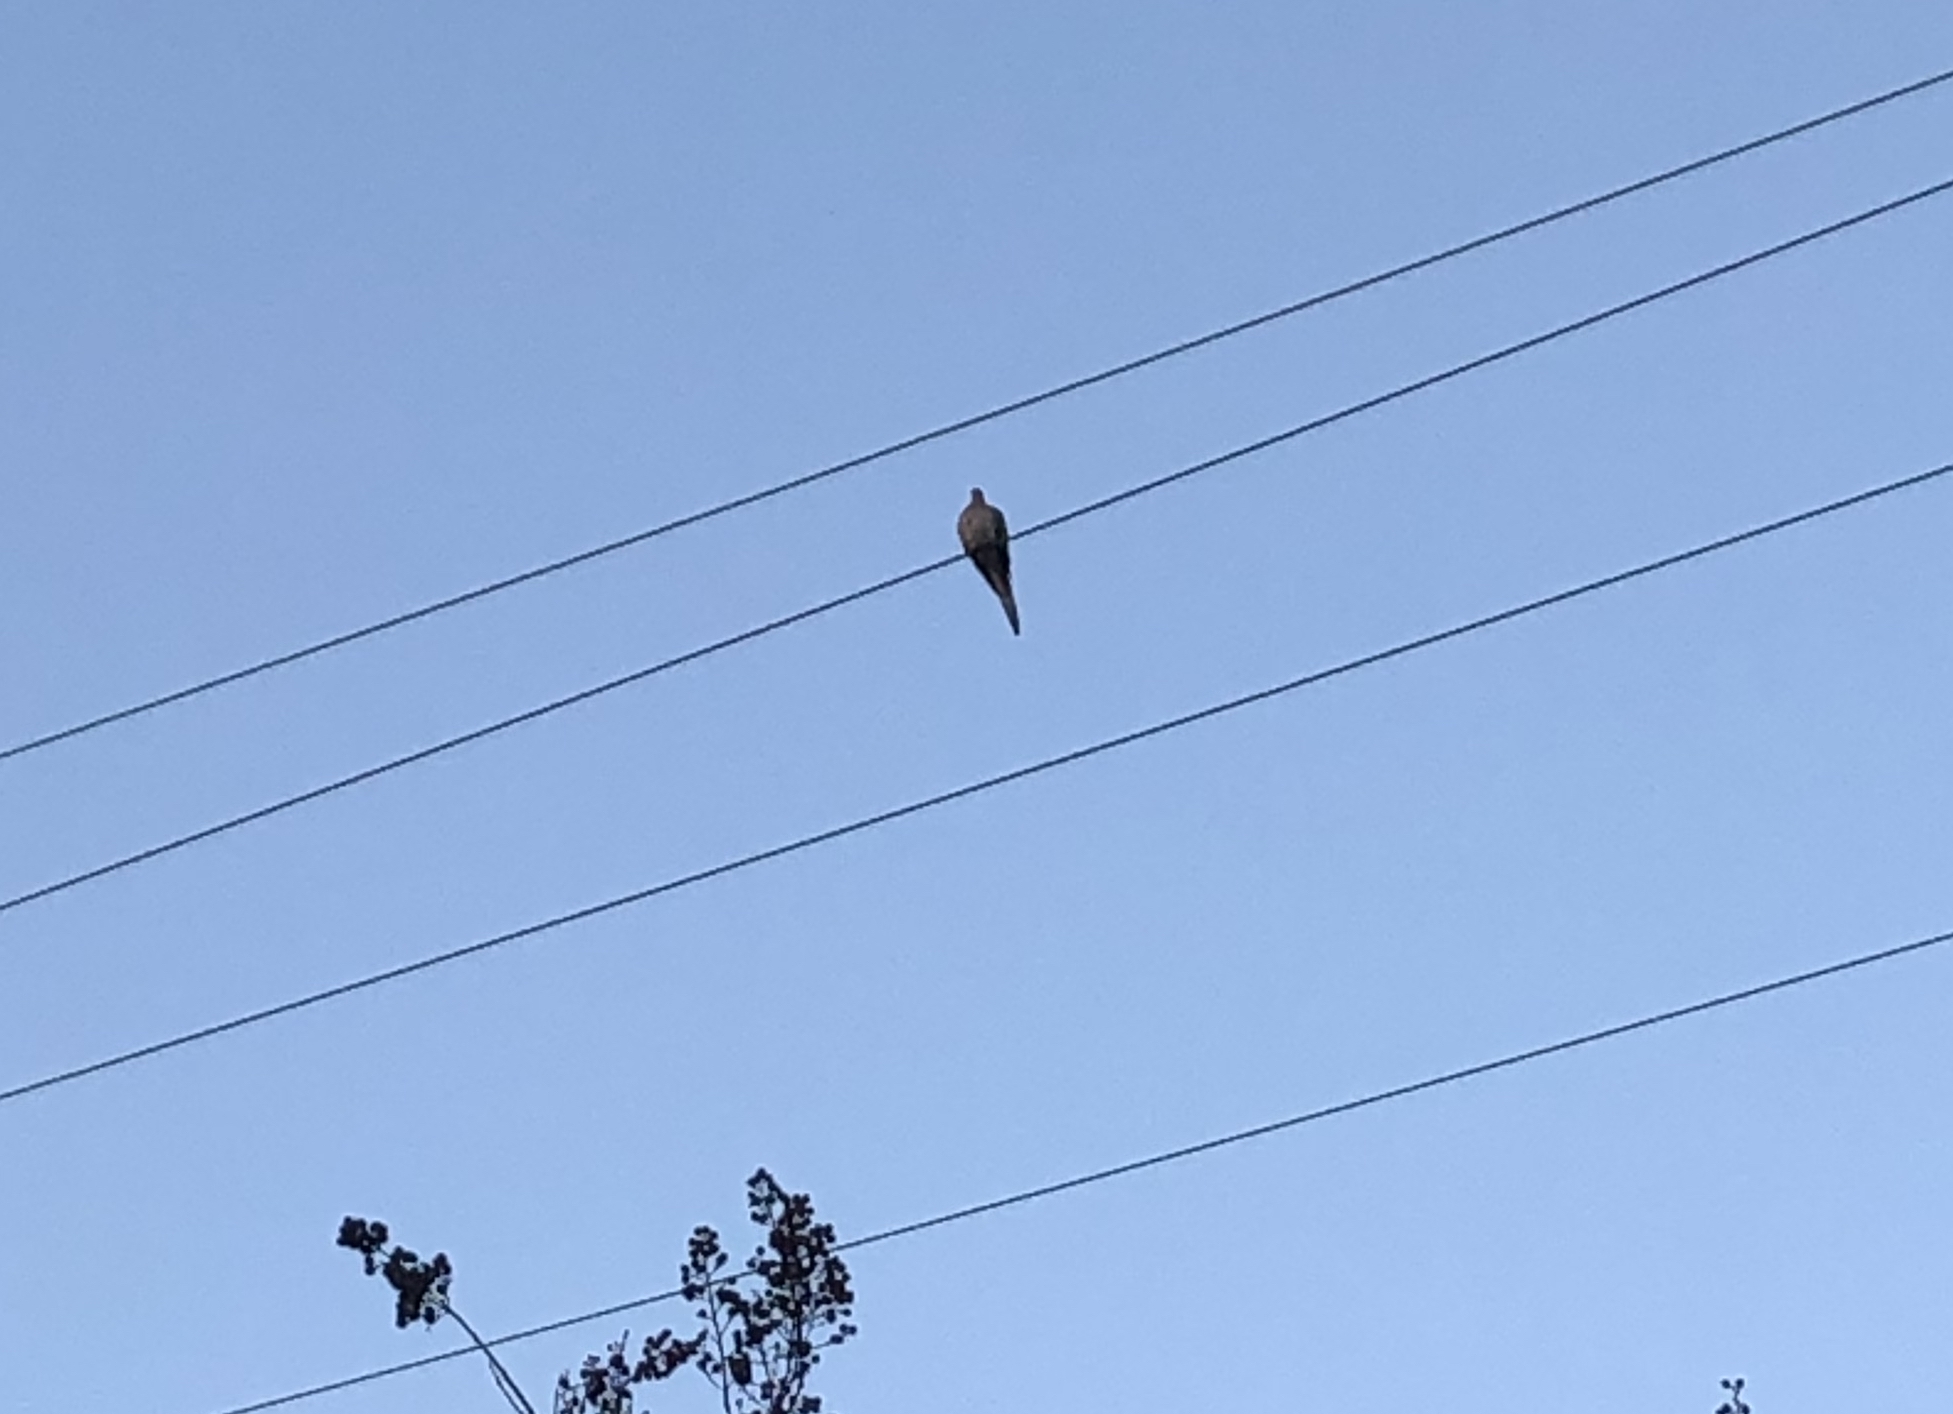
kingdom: Animalia
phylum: Chordata
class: Aves
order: Columbiformes
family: Columbidae
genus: Zenaida
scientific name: Zenaida macroura
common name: Mourning dove
